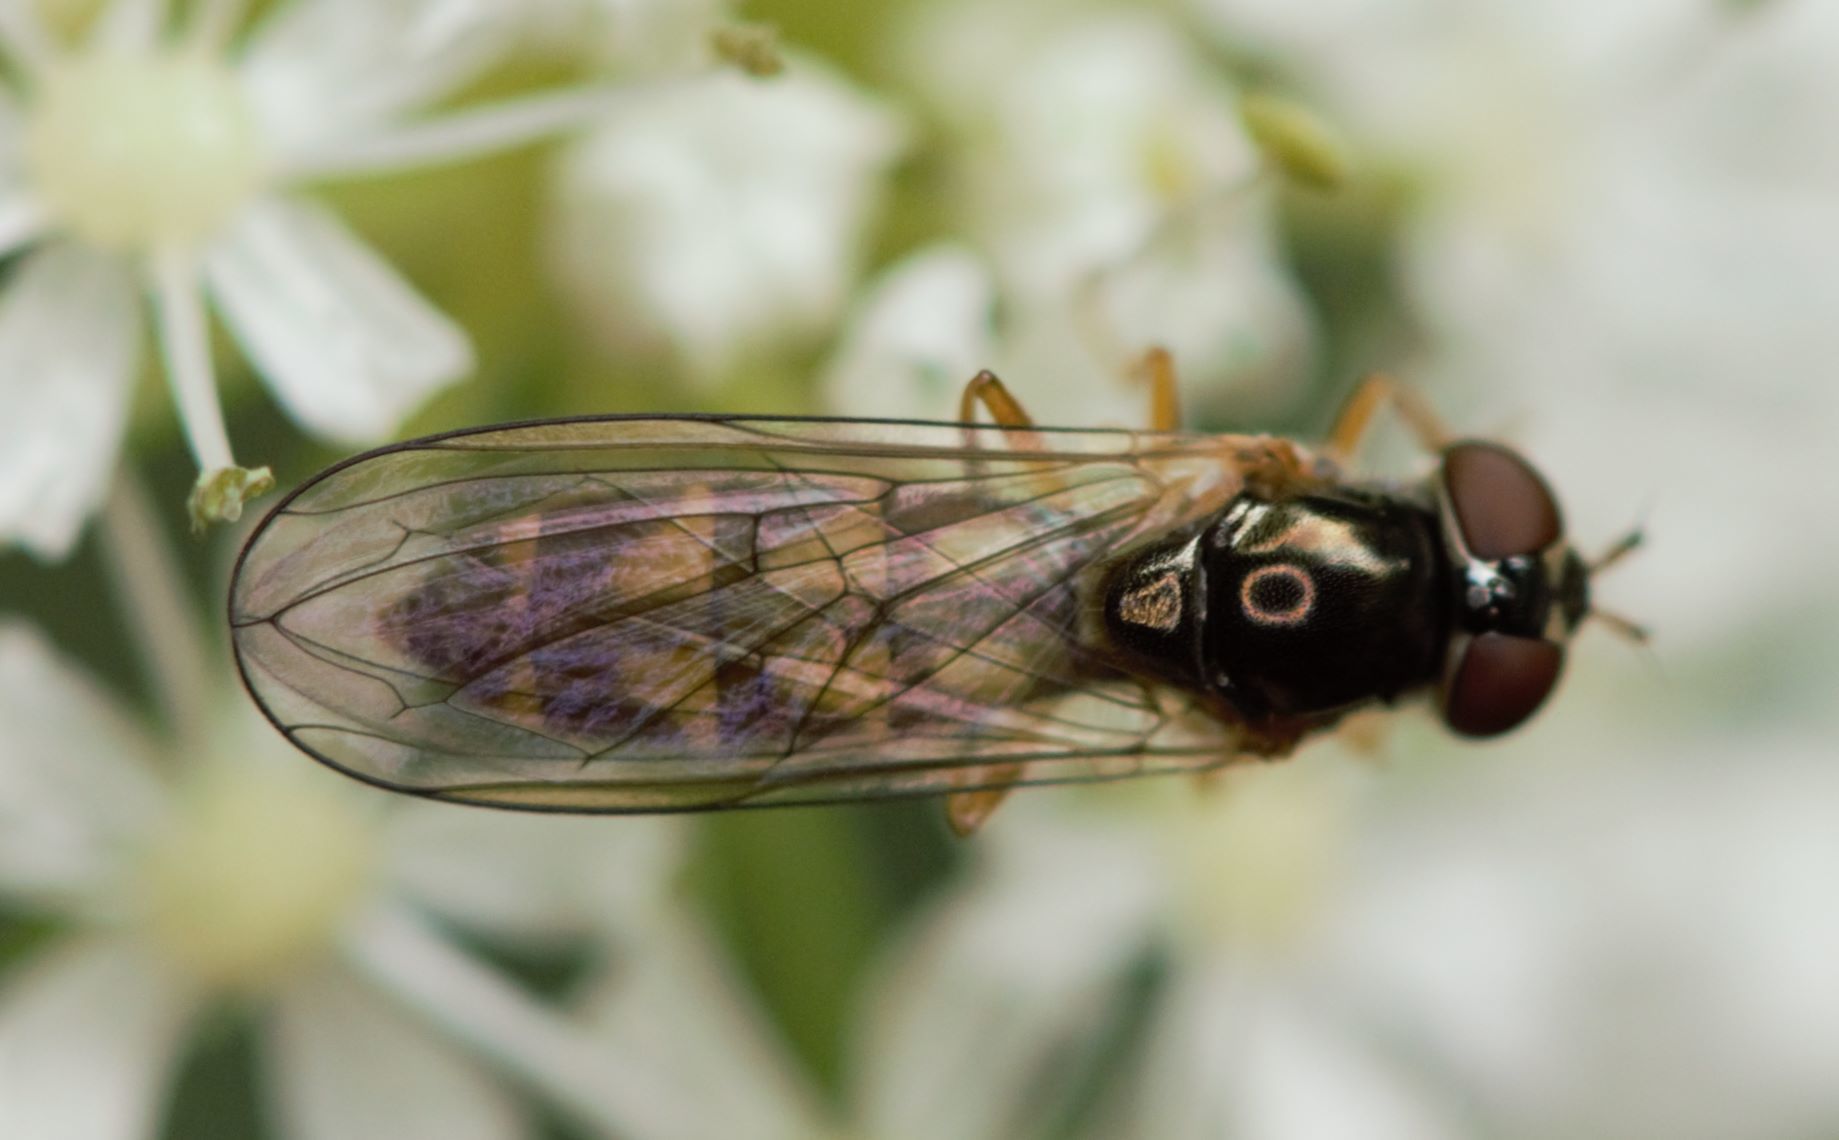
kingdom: Animalia
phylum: Arthropoda
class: Insecta
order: Diptera
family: Syrphidae
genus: Melanostoma
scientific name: Melanostoma scalare
